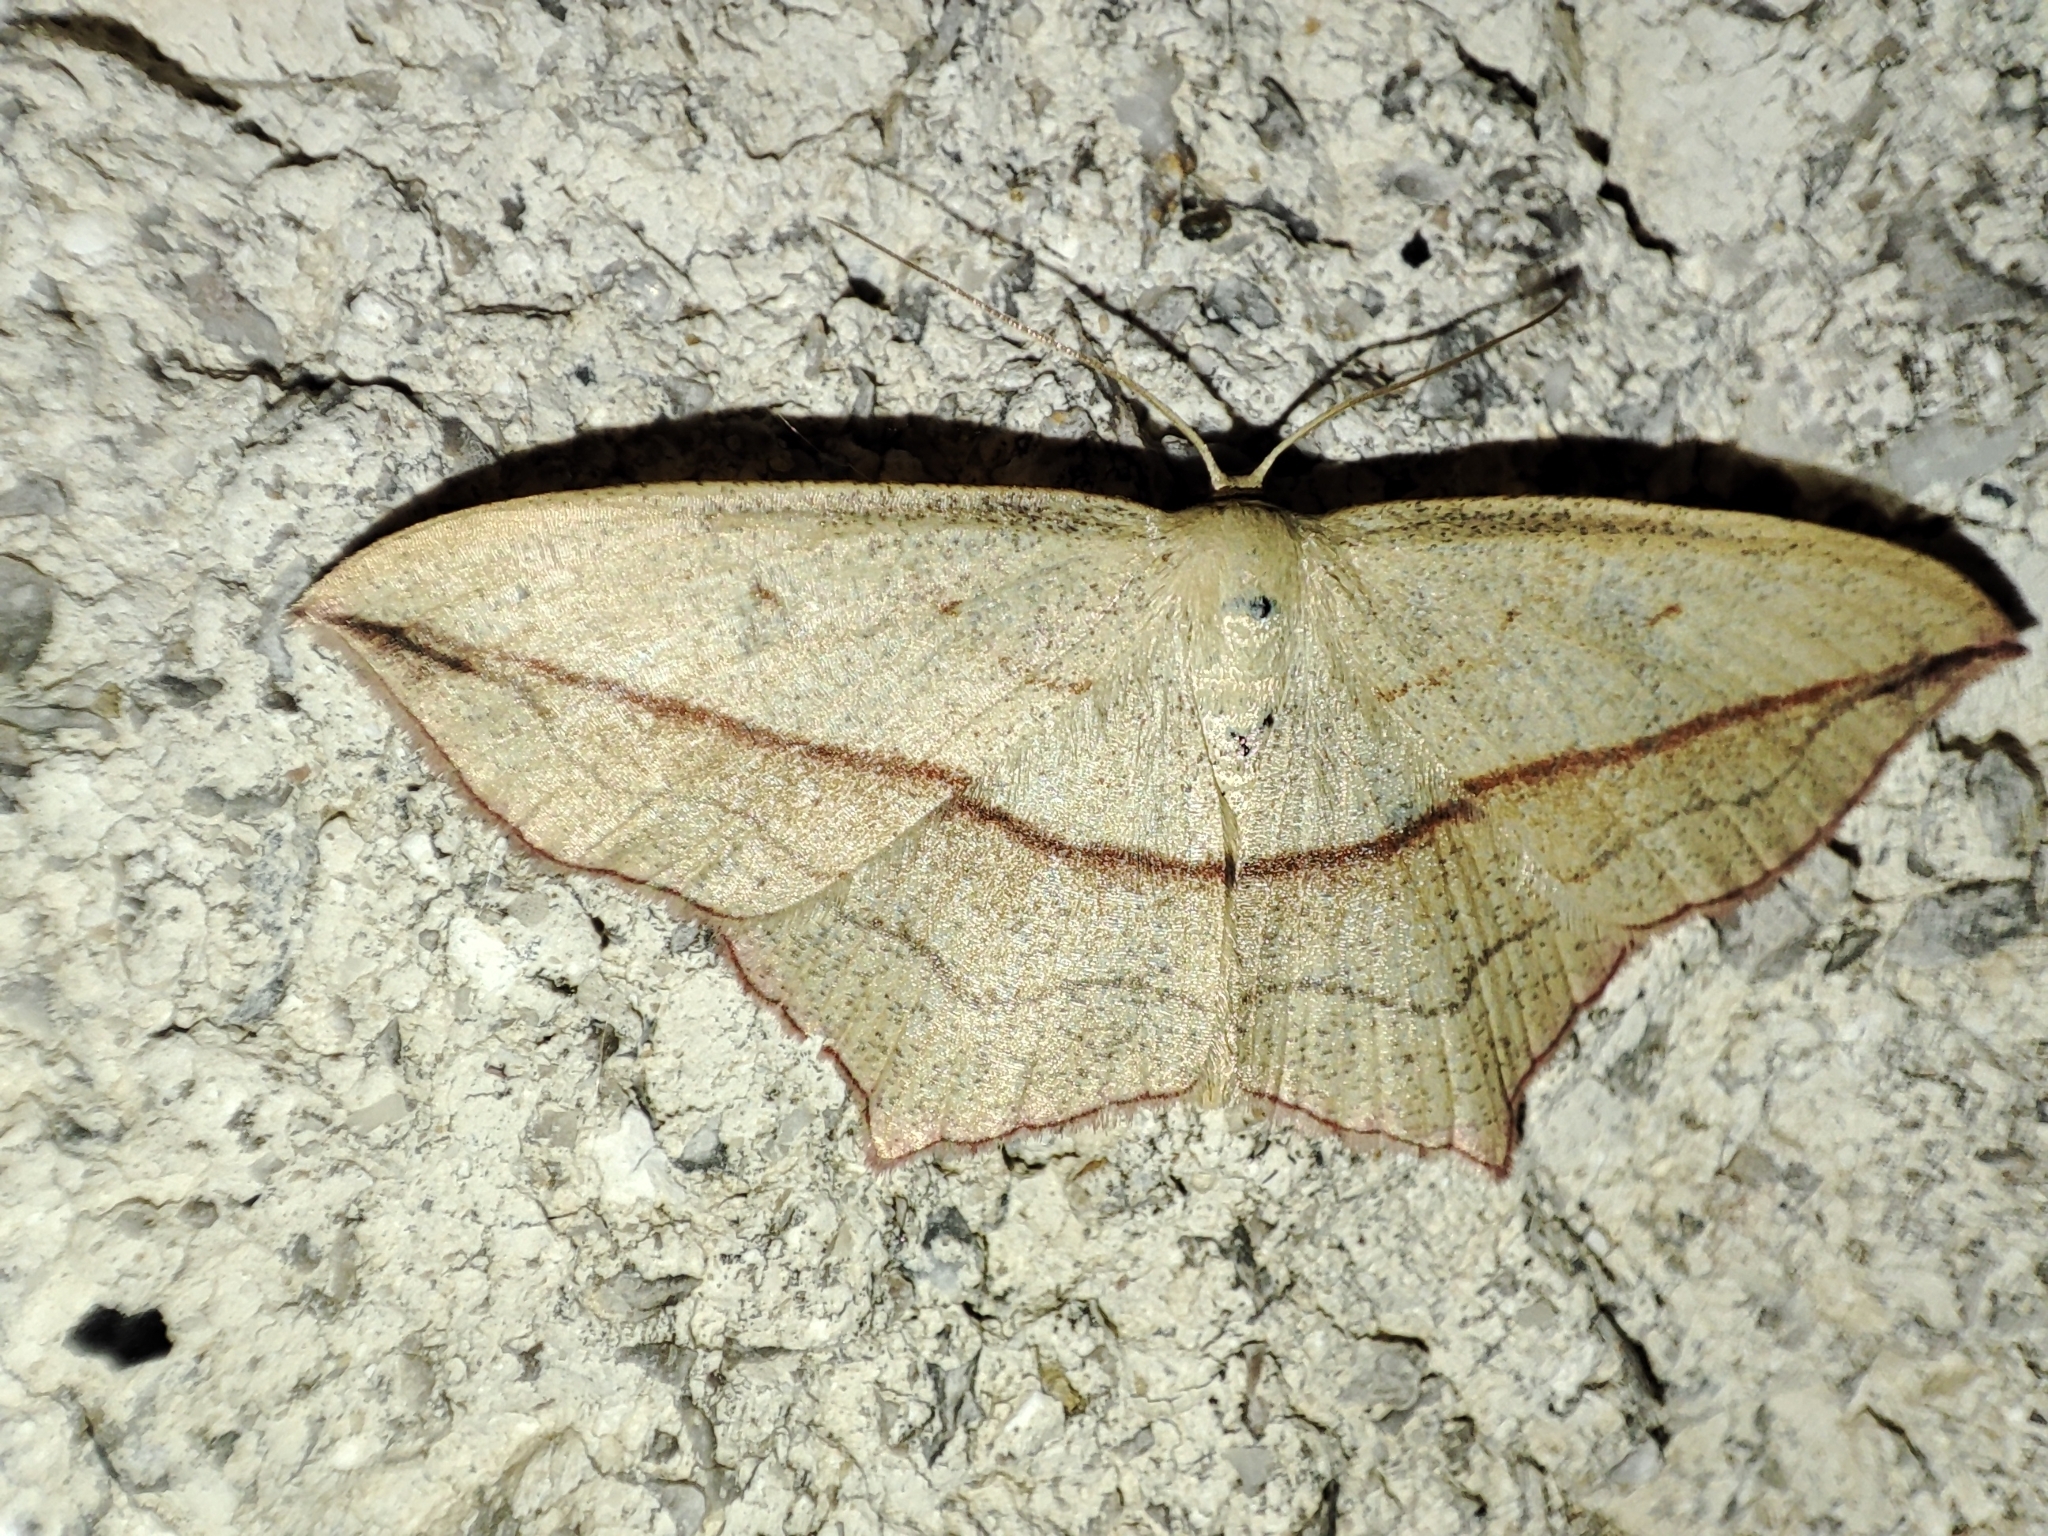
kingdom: Animalia
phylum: Arthropoda
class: Insecta
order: Lepidoptera
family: Geometridae
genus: Timandra
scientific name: Timandra comae
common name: Blood-vein
